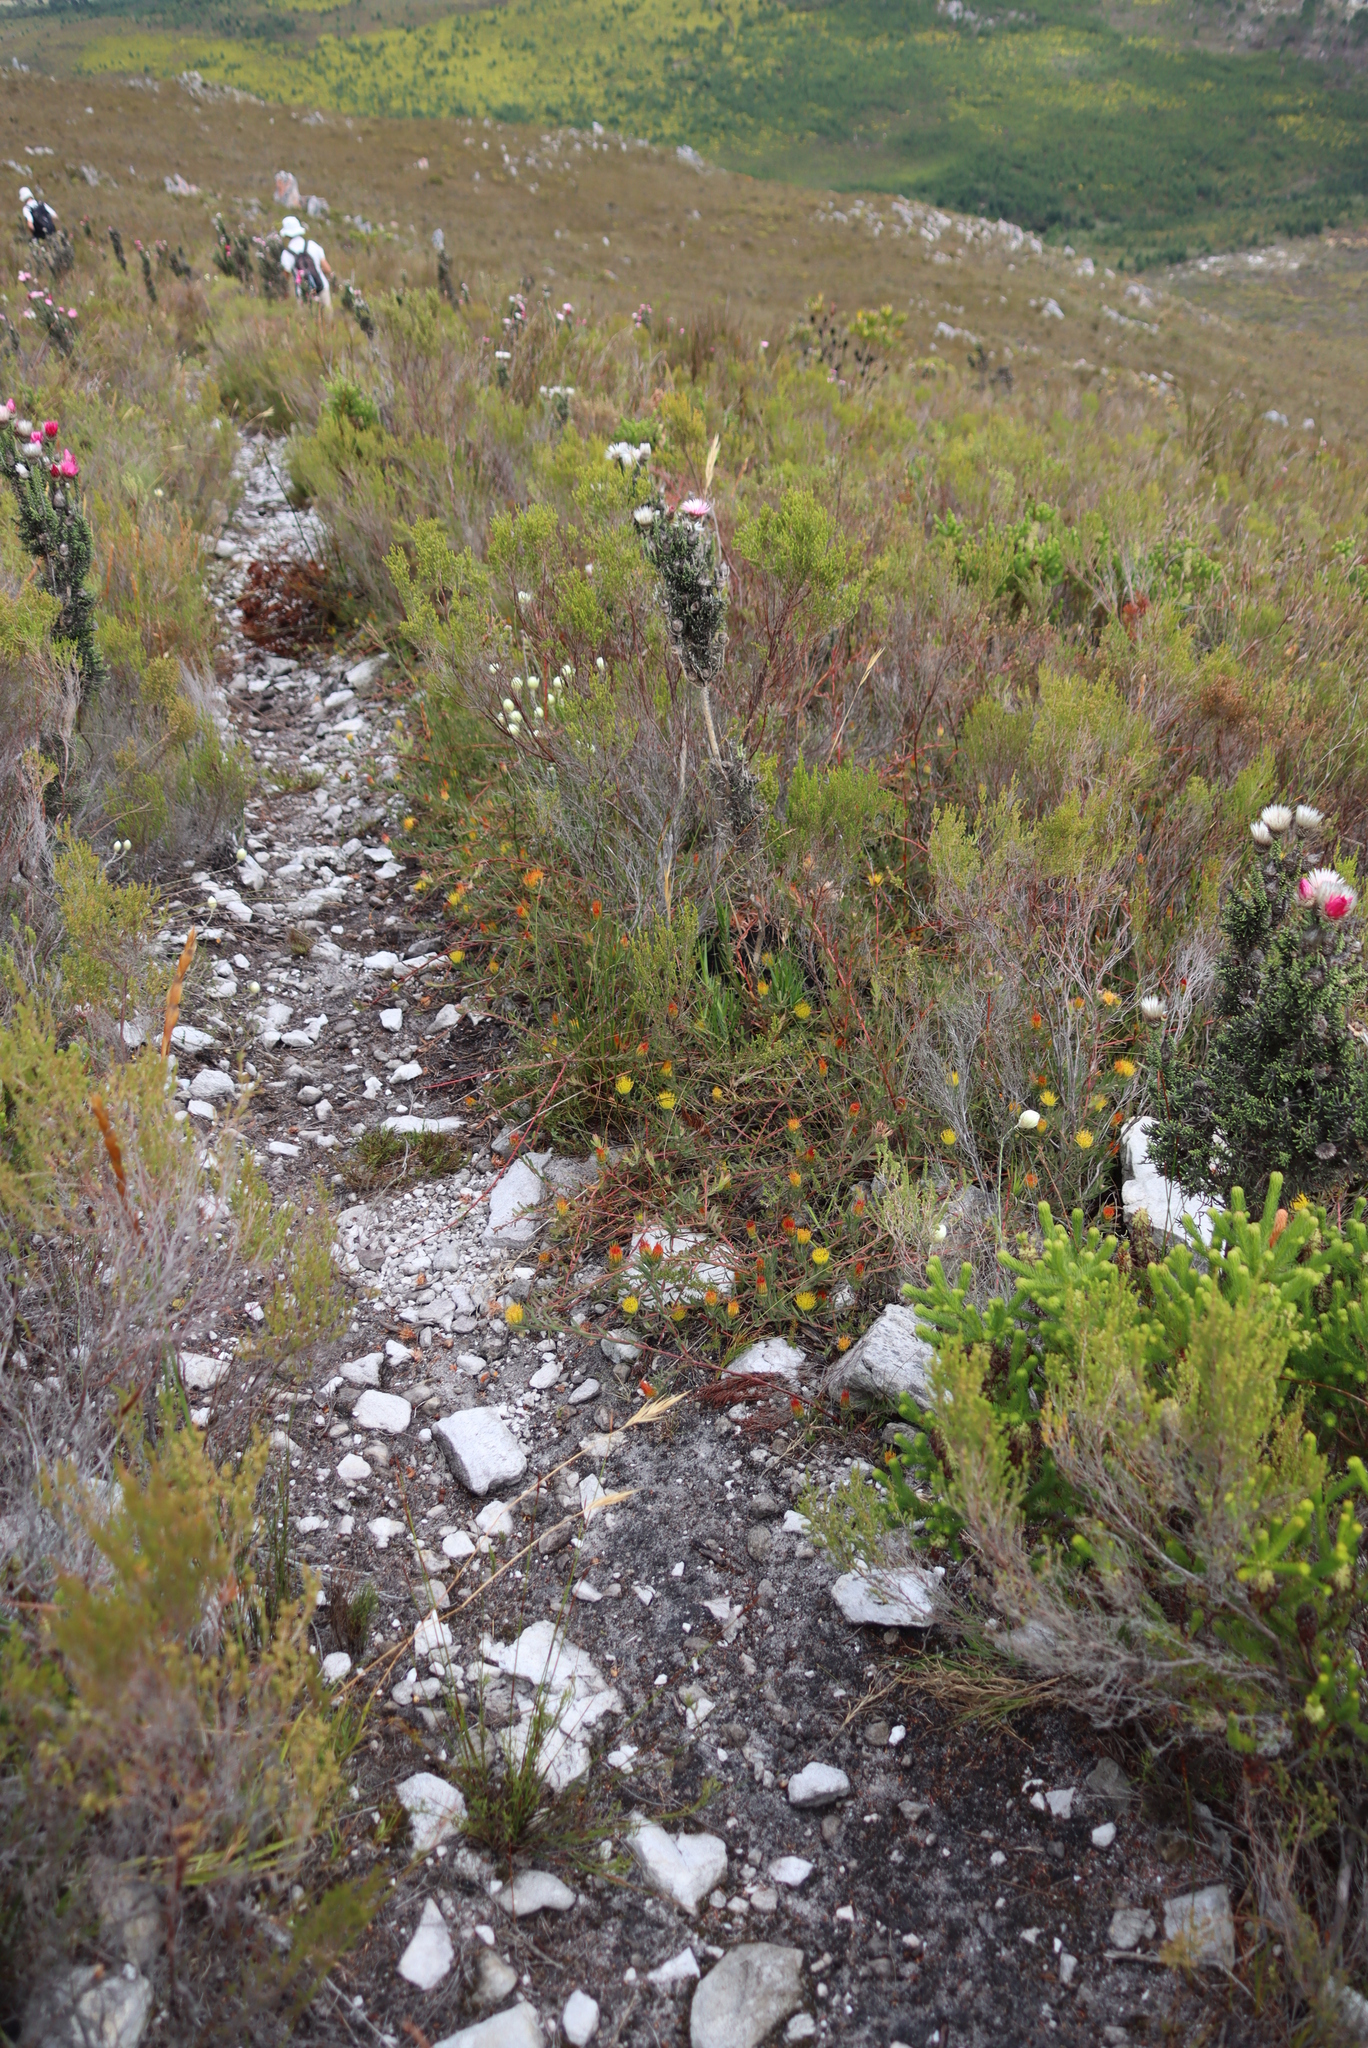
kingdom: Plantae
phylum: Tracheophyta
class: Magnoliopsida
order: Asterales
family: Asteraceae
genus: Phaenocoma
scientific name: Phaenocoma prolifera
